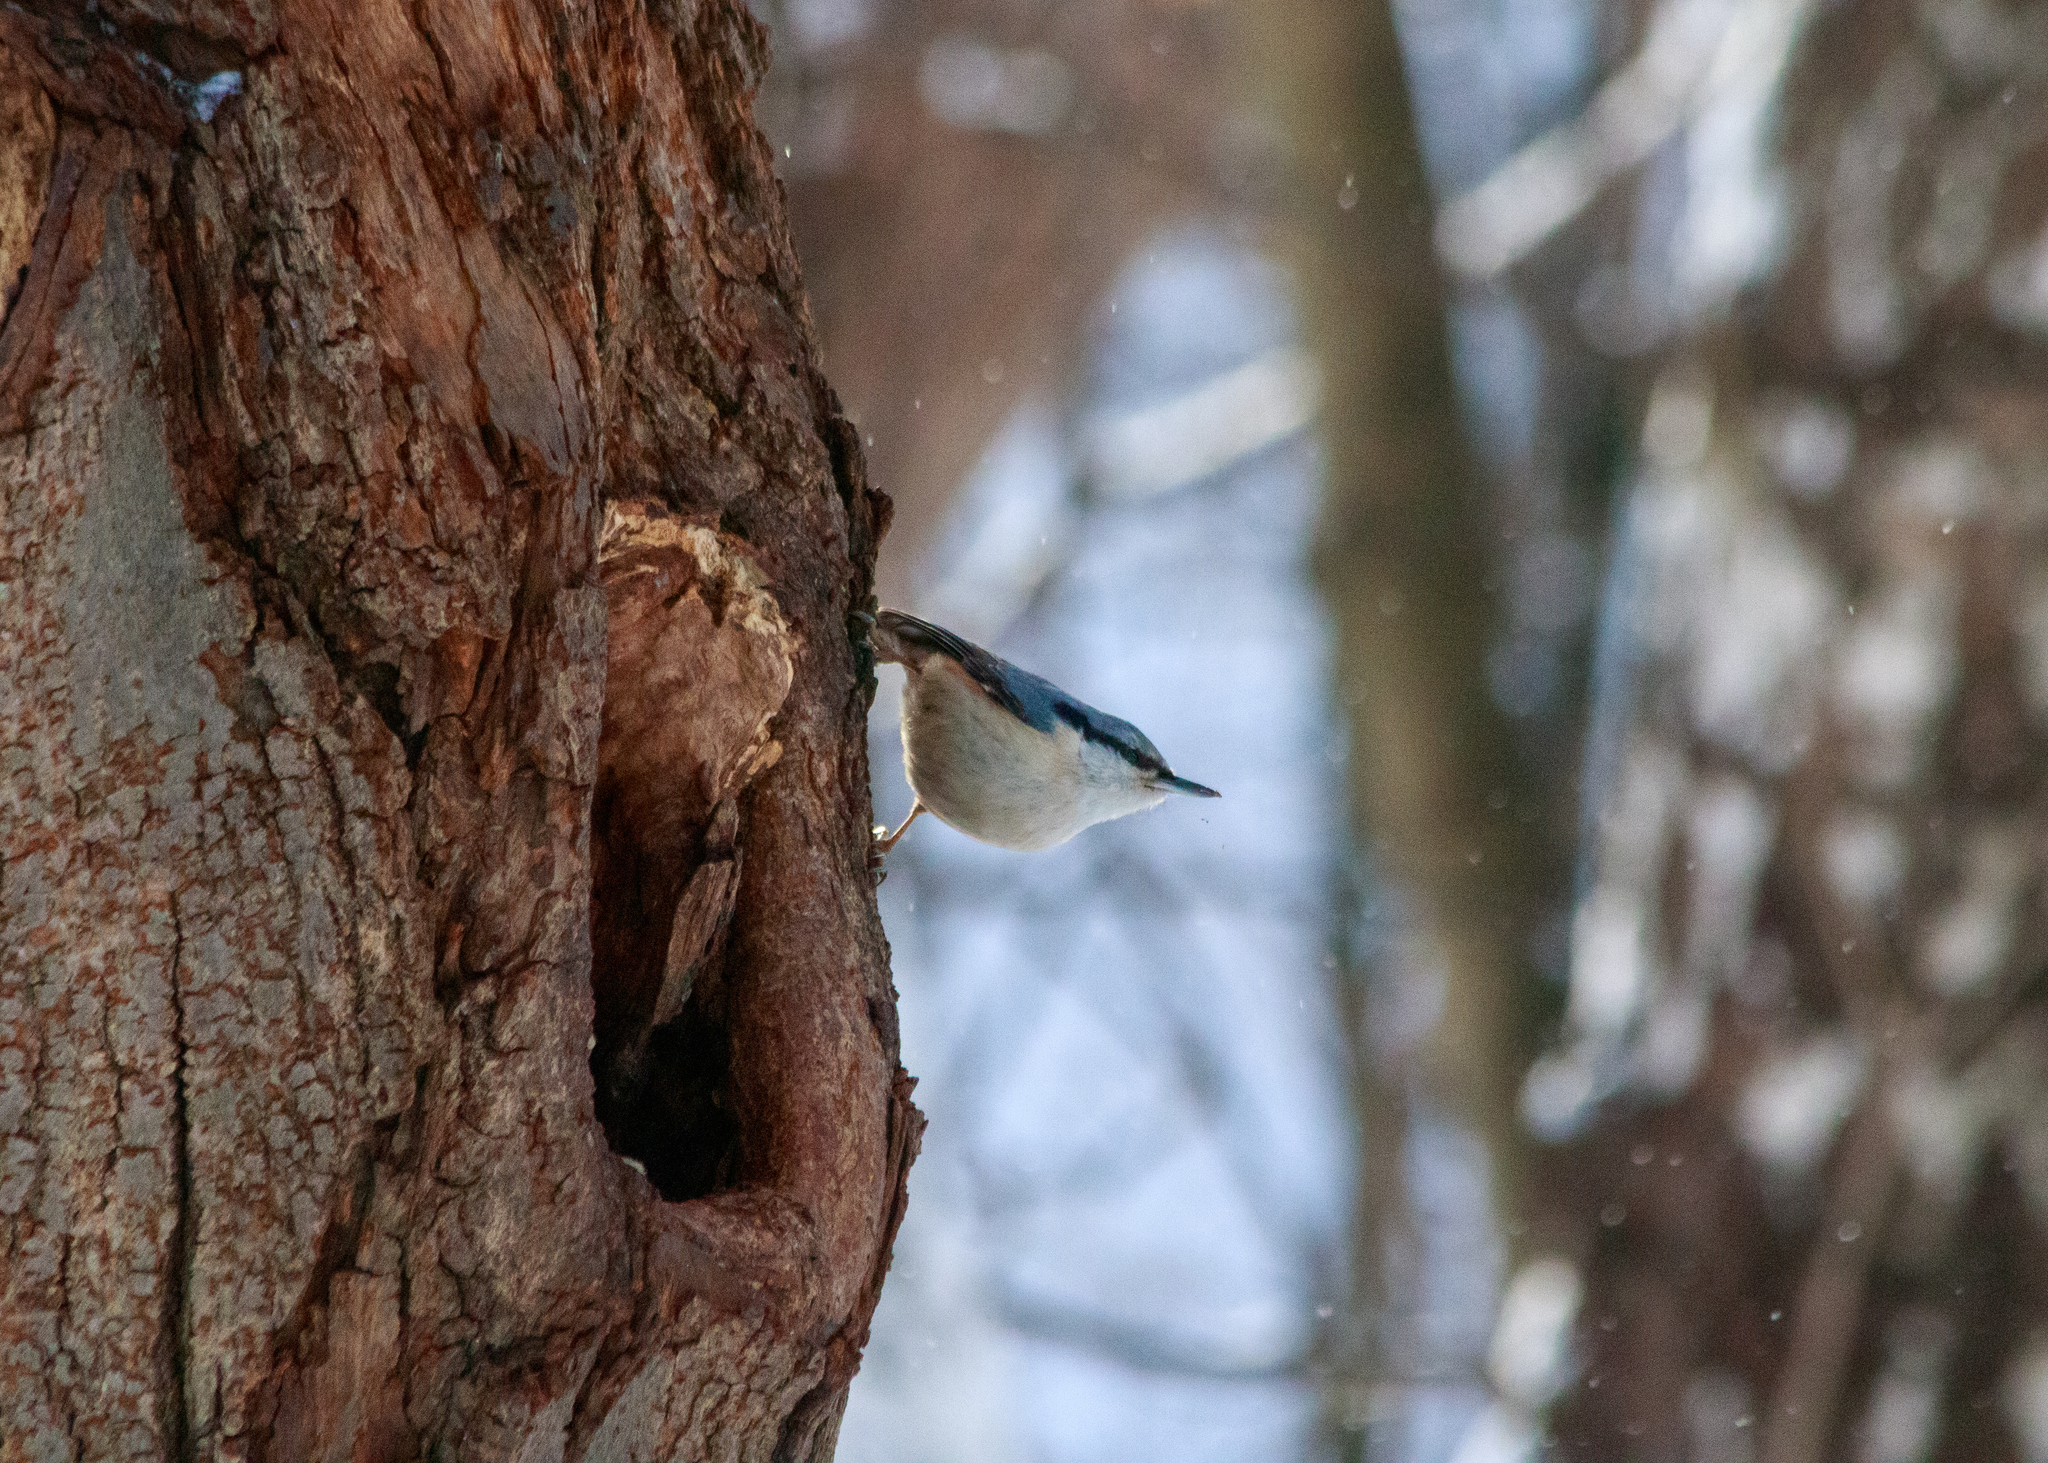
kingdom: Animalia
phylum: Chordata
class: Aves
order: Passeriformes
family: Sittidae
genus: Sitta
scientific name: Sitta europaea
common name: Eurasian nuthatch
